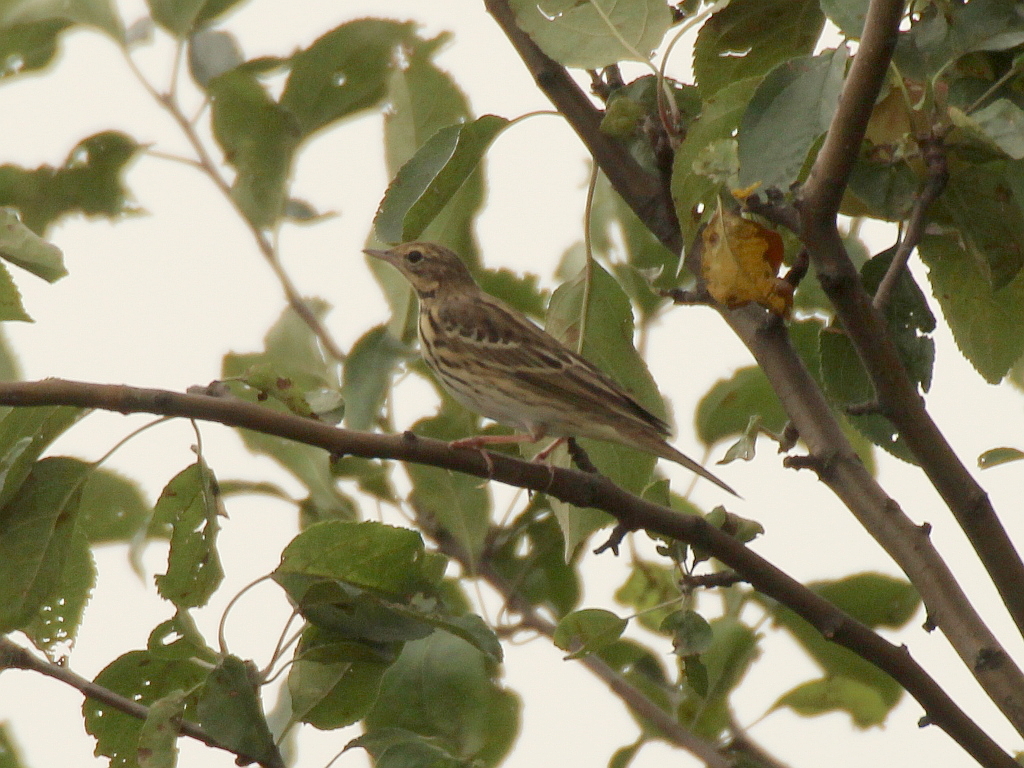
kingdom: Animalia
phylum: Chordata
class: Aves
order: Passeriformes
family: Motacillidae
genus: Anthus
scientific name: Anthus trivialis
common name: Tree pipit
